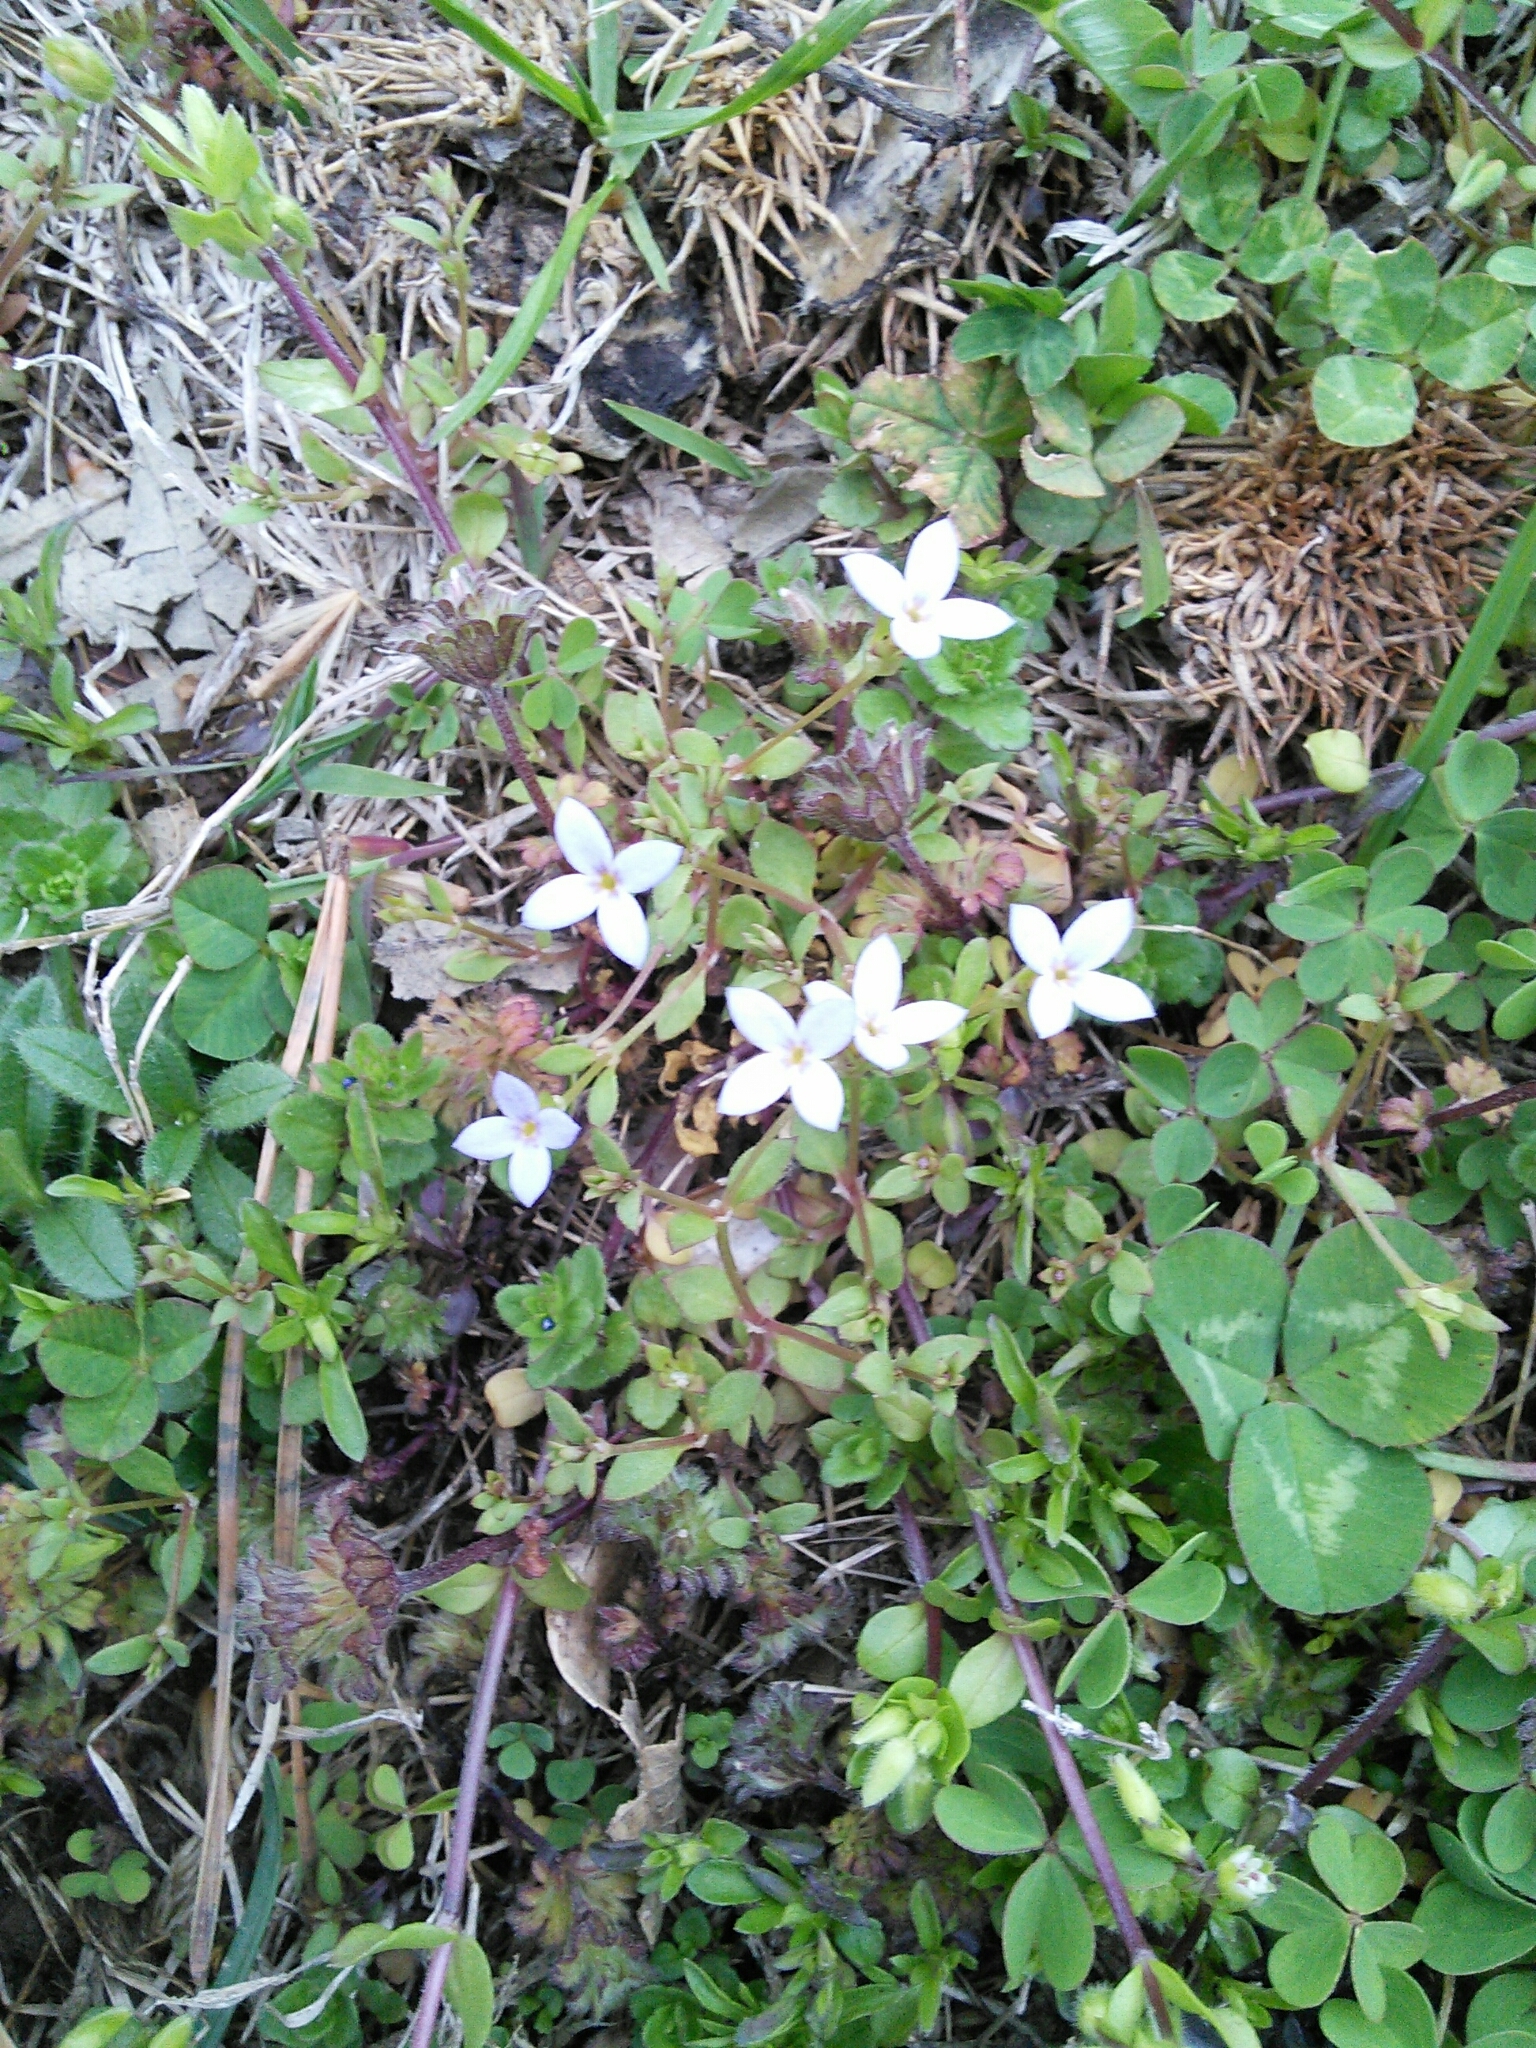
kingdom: Plantae
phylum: Tracheophyta
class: Magnoliopsida
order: Gentianales
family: Rubiaceae
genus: Houstonia
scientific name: Houstonia pusilla
